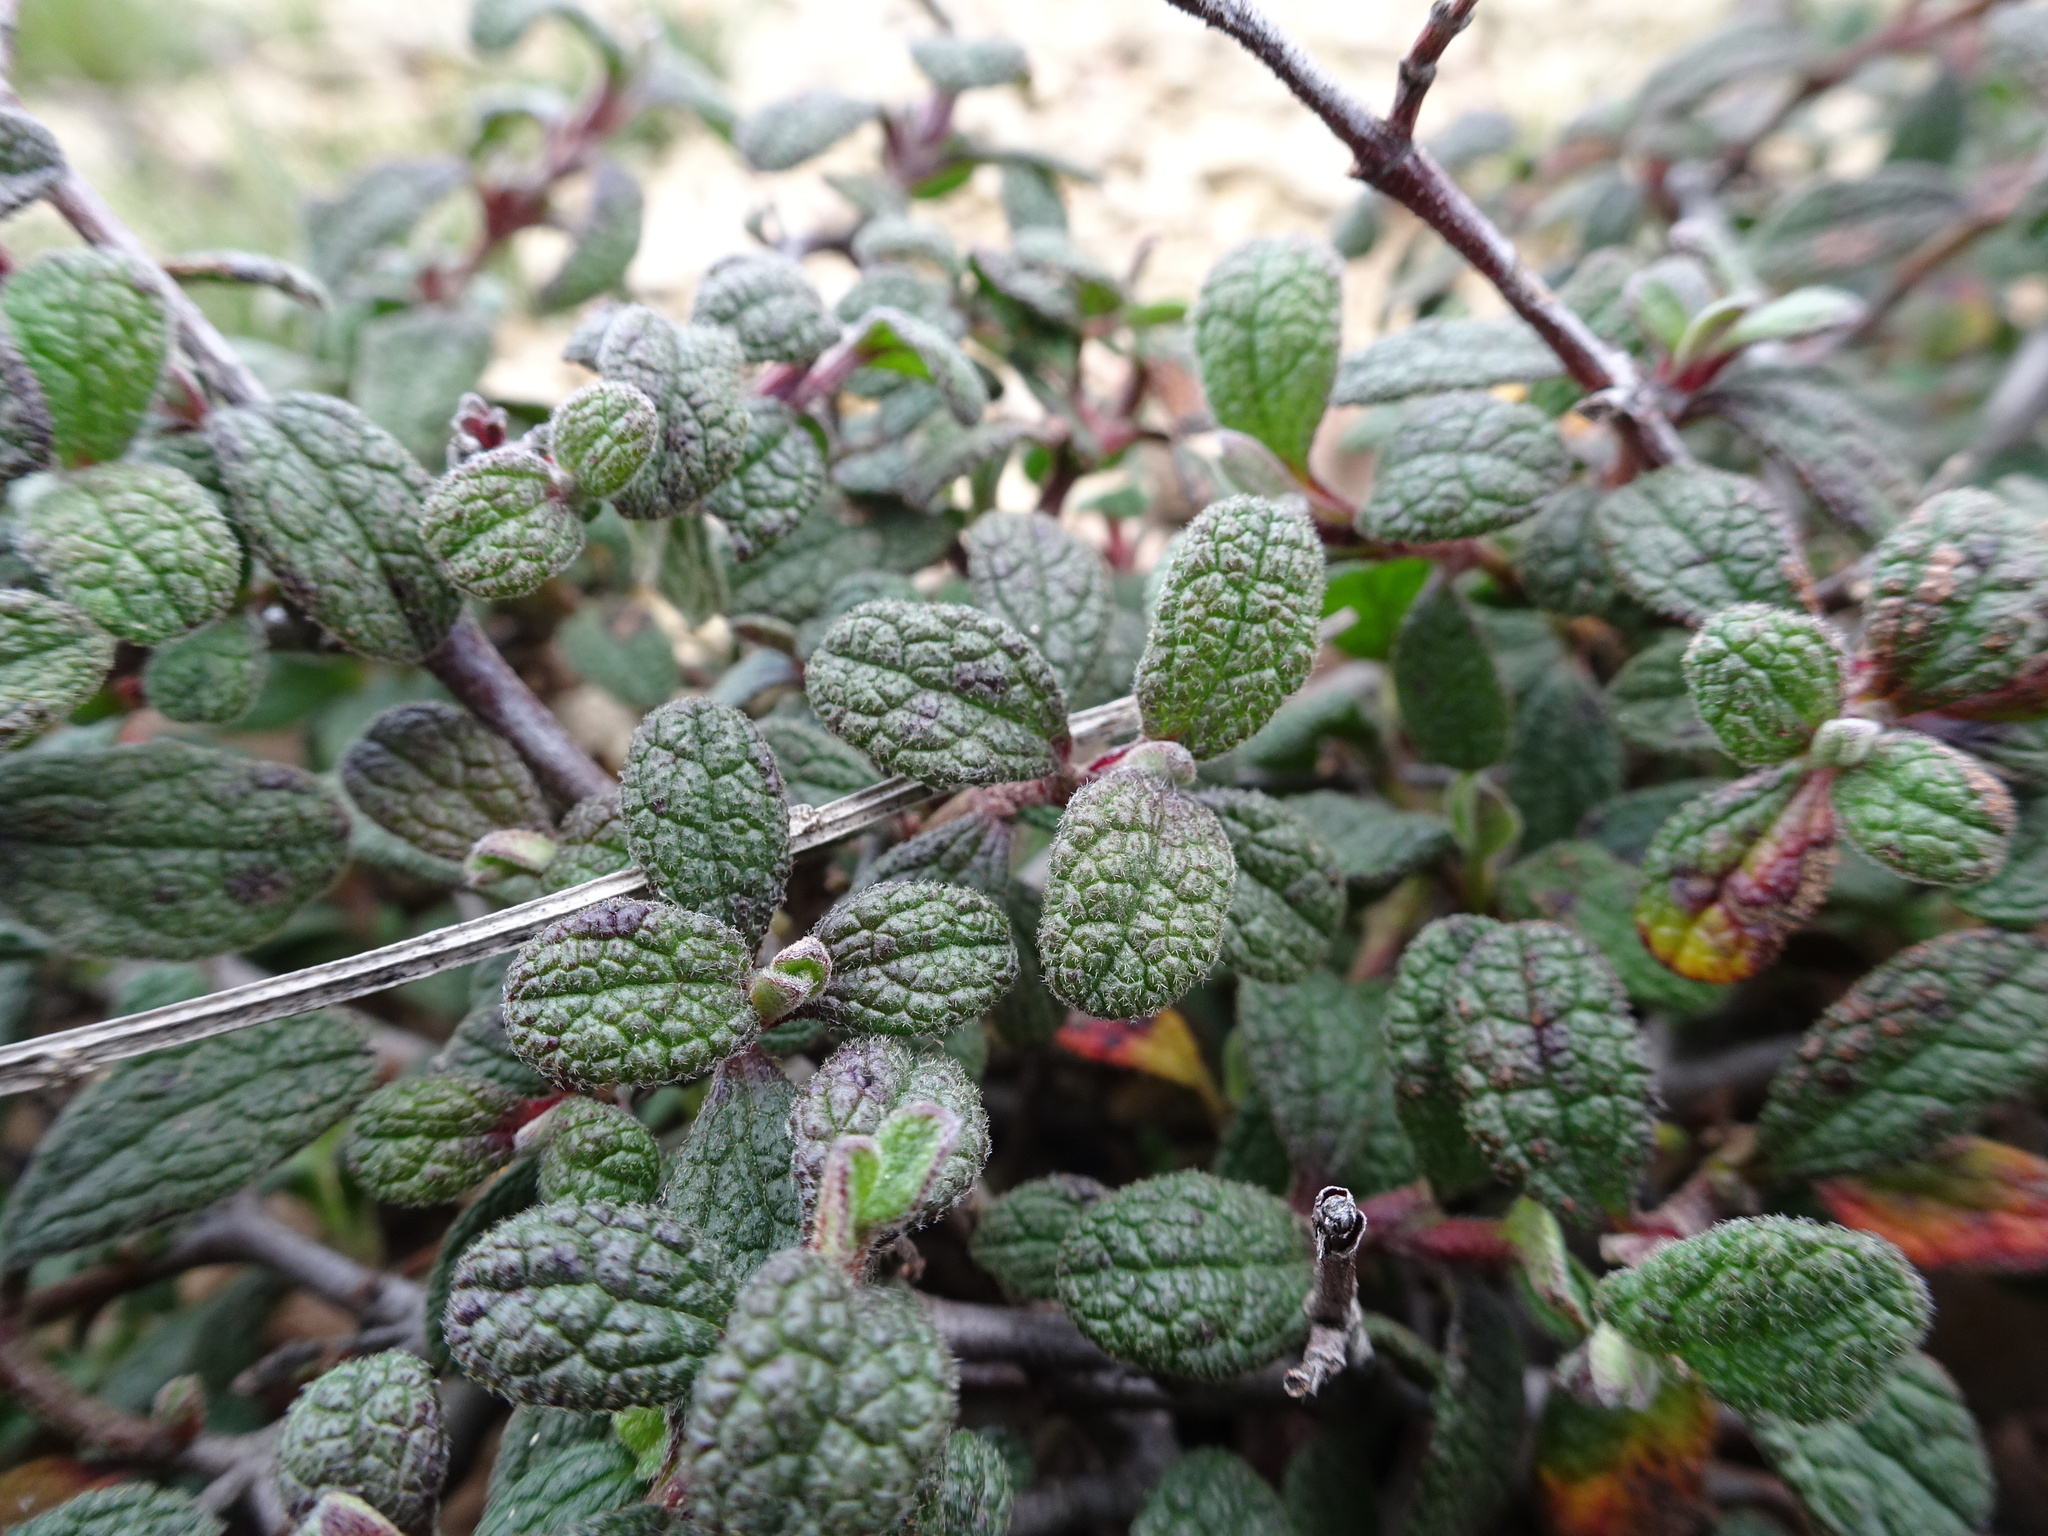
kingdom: Plantae
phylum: Tracheophyta
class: Magnoliopsida
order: Malvales
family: Cistaceae
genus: Cistus
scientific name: Cistus salviifolius
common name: Salvia cistus
